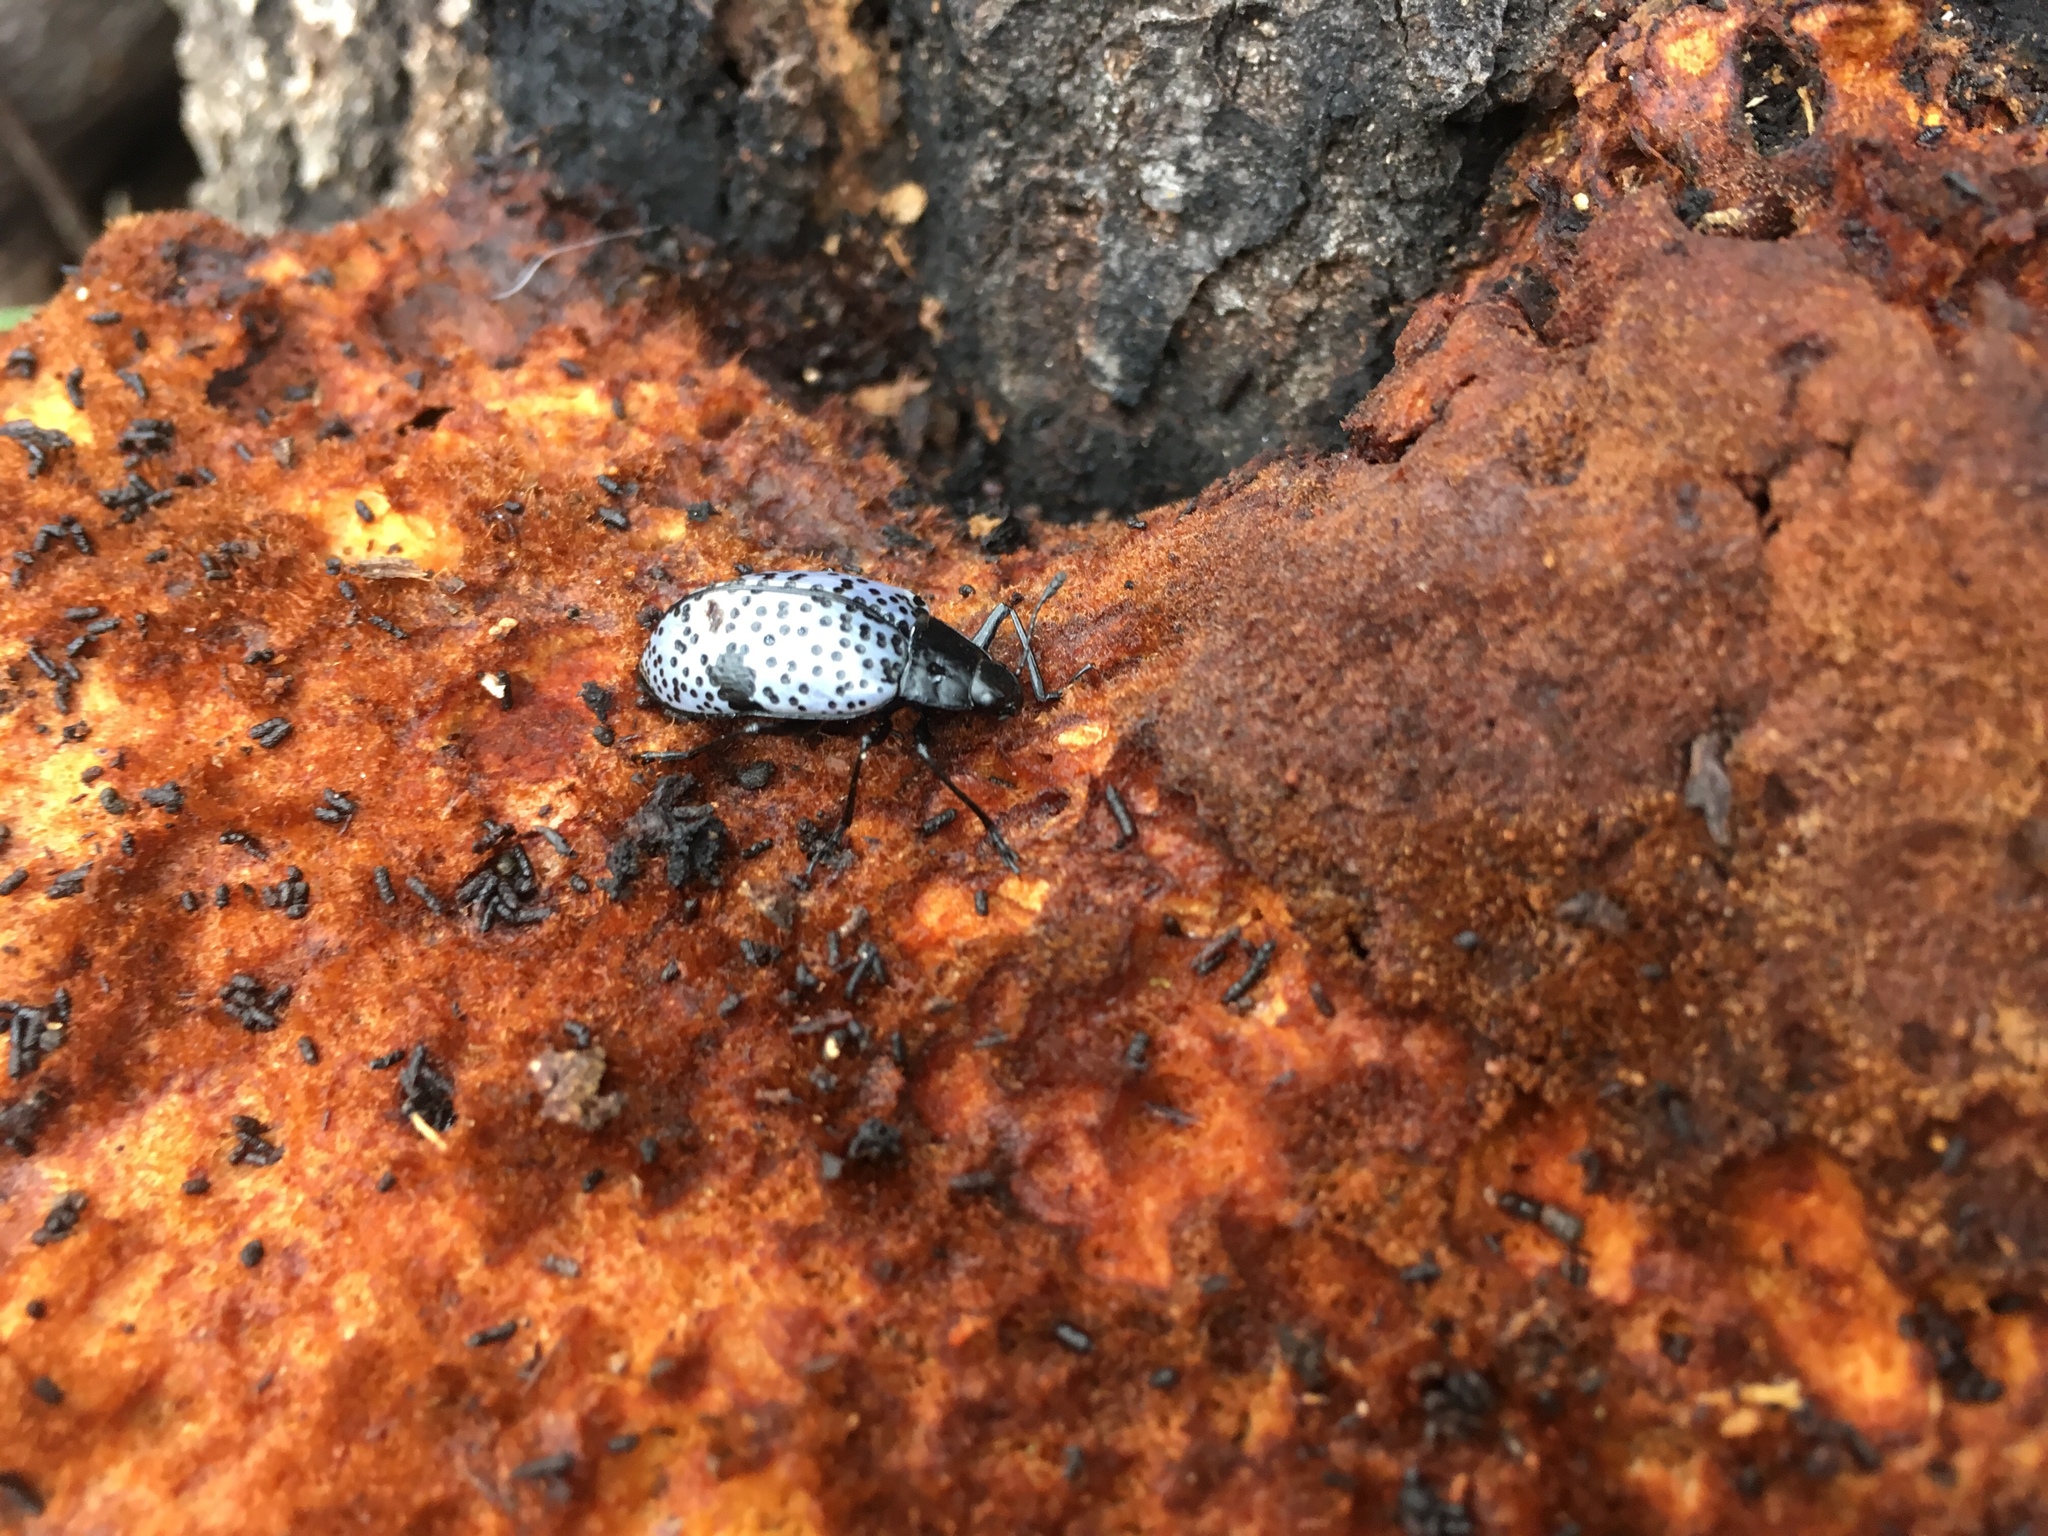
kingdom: Animalia
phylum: Arthropoda
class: Insecta
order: Coleoptera
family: Erotylidae
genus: Gibbifer
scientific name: Gibbifer californicus
